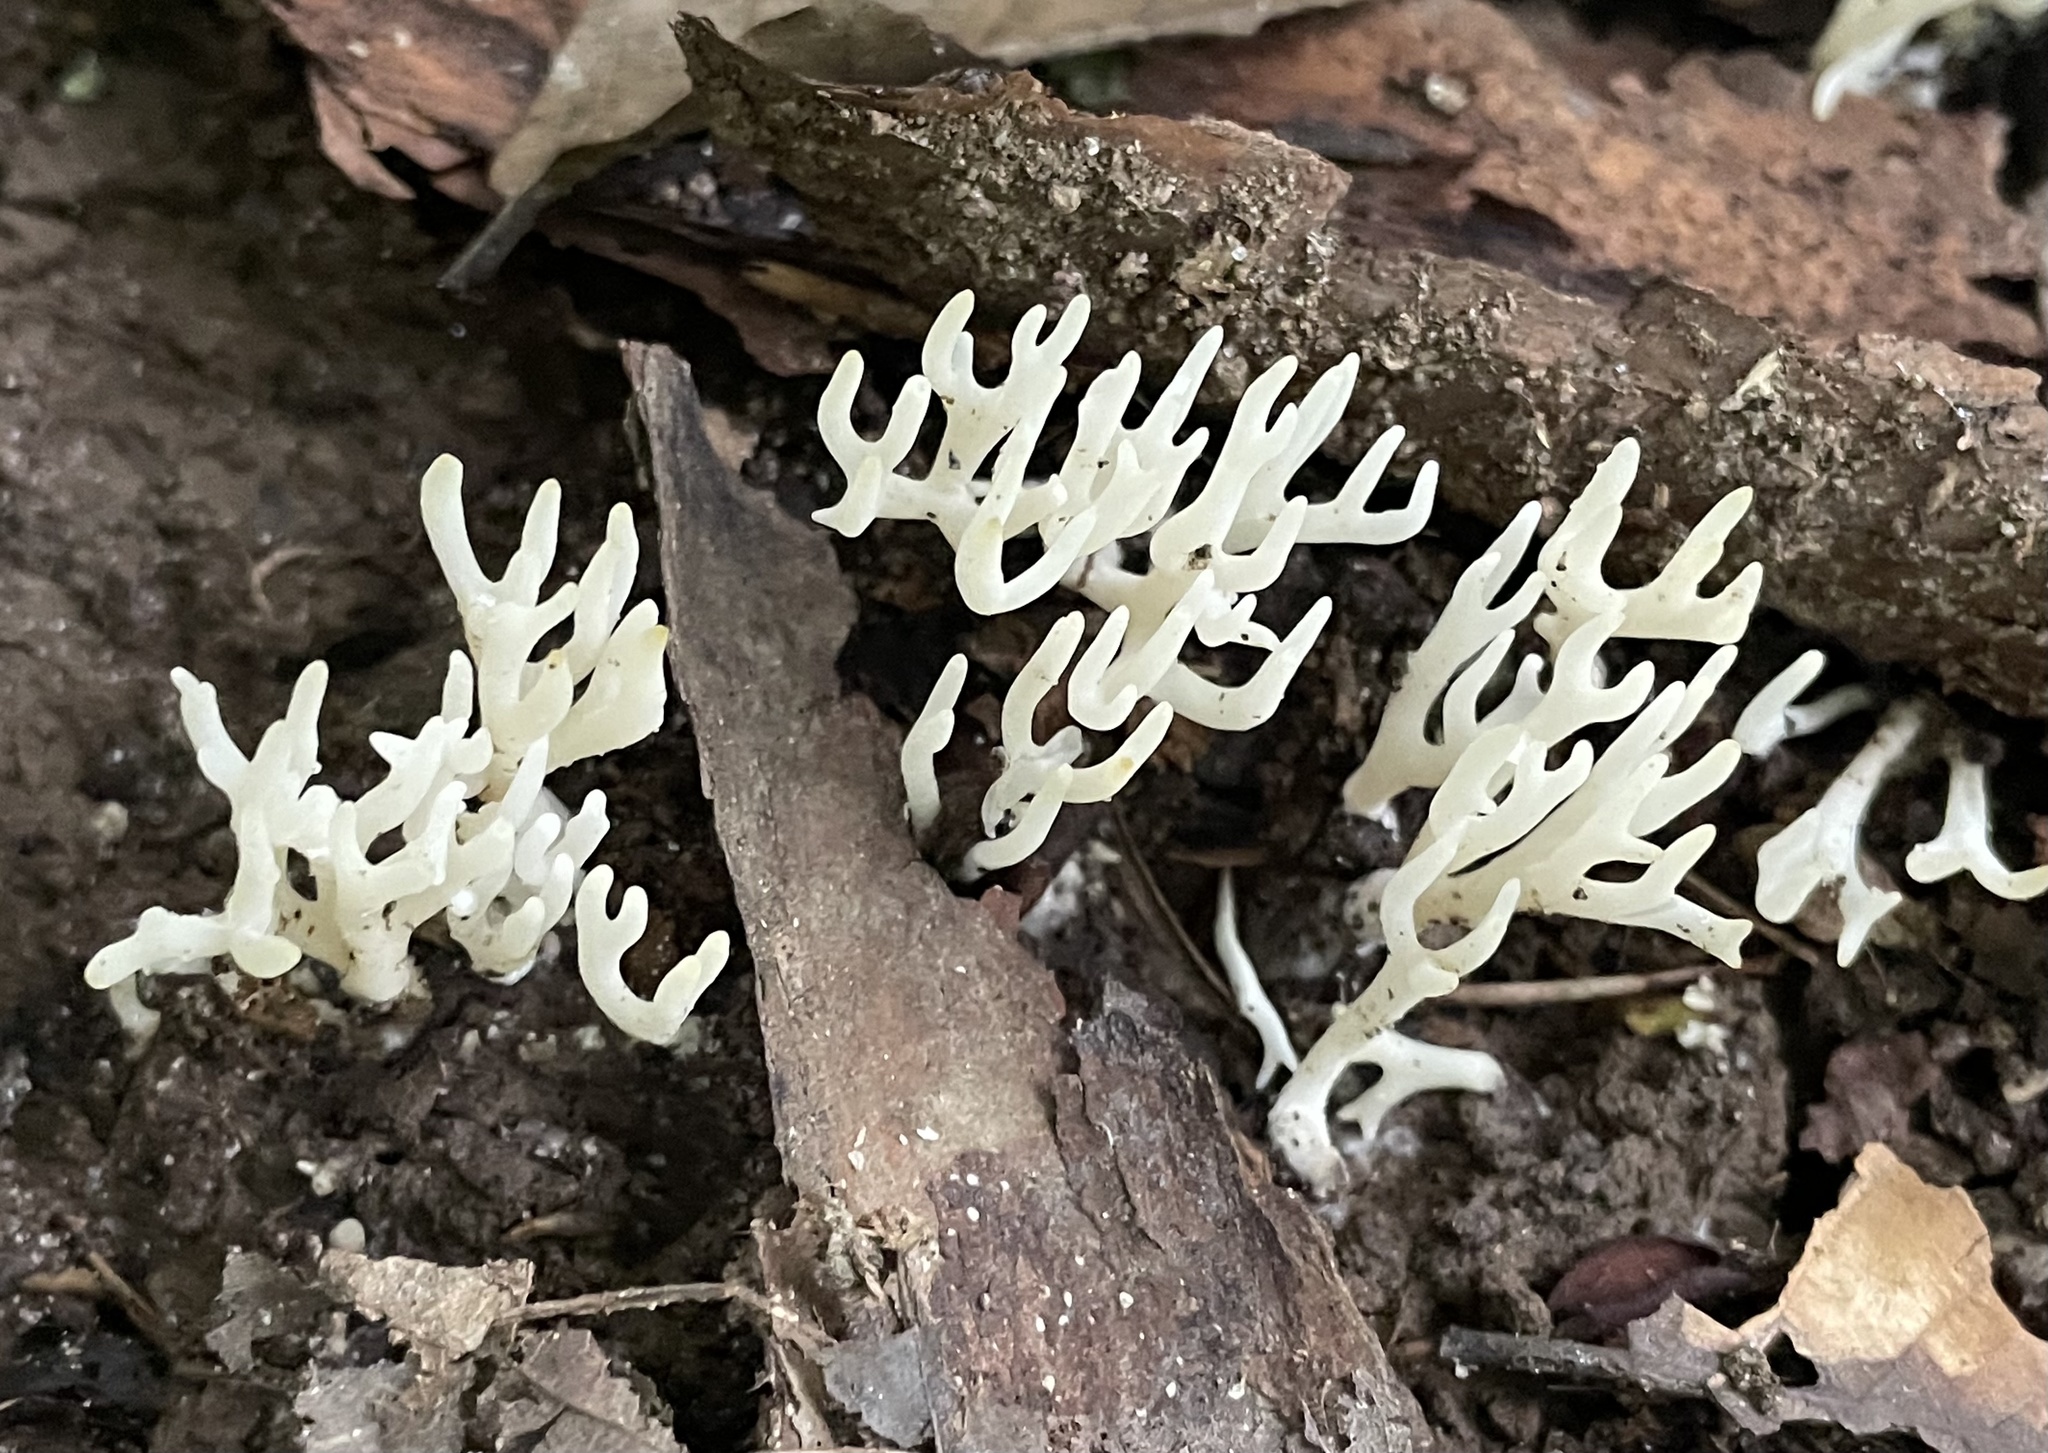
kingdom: Fungi
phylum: Basidiomycota
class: Agaricomycetes
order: Agaricales
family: Clavariaceae
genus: Ramariopsis
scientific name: Ramariopsis kunzei
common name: Ivory coral
